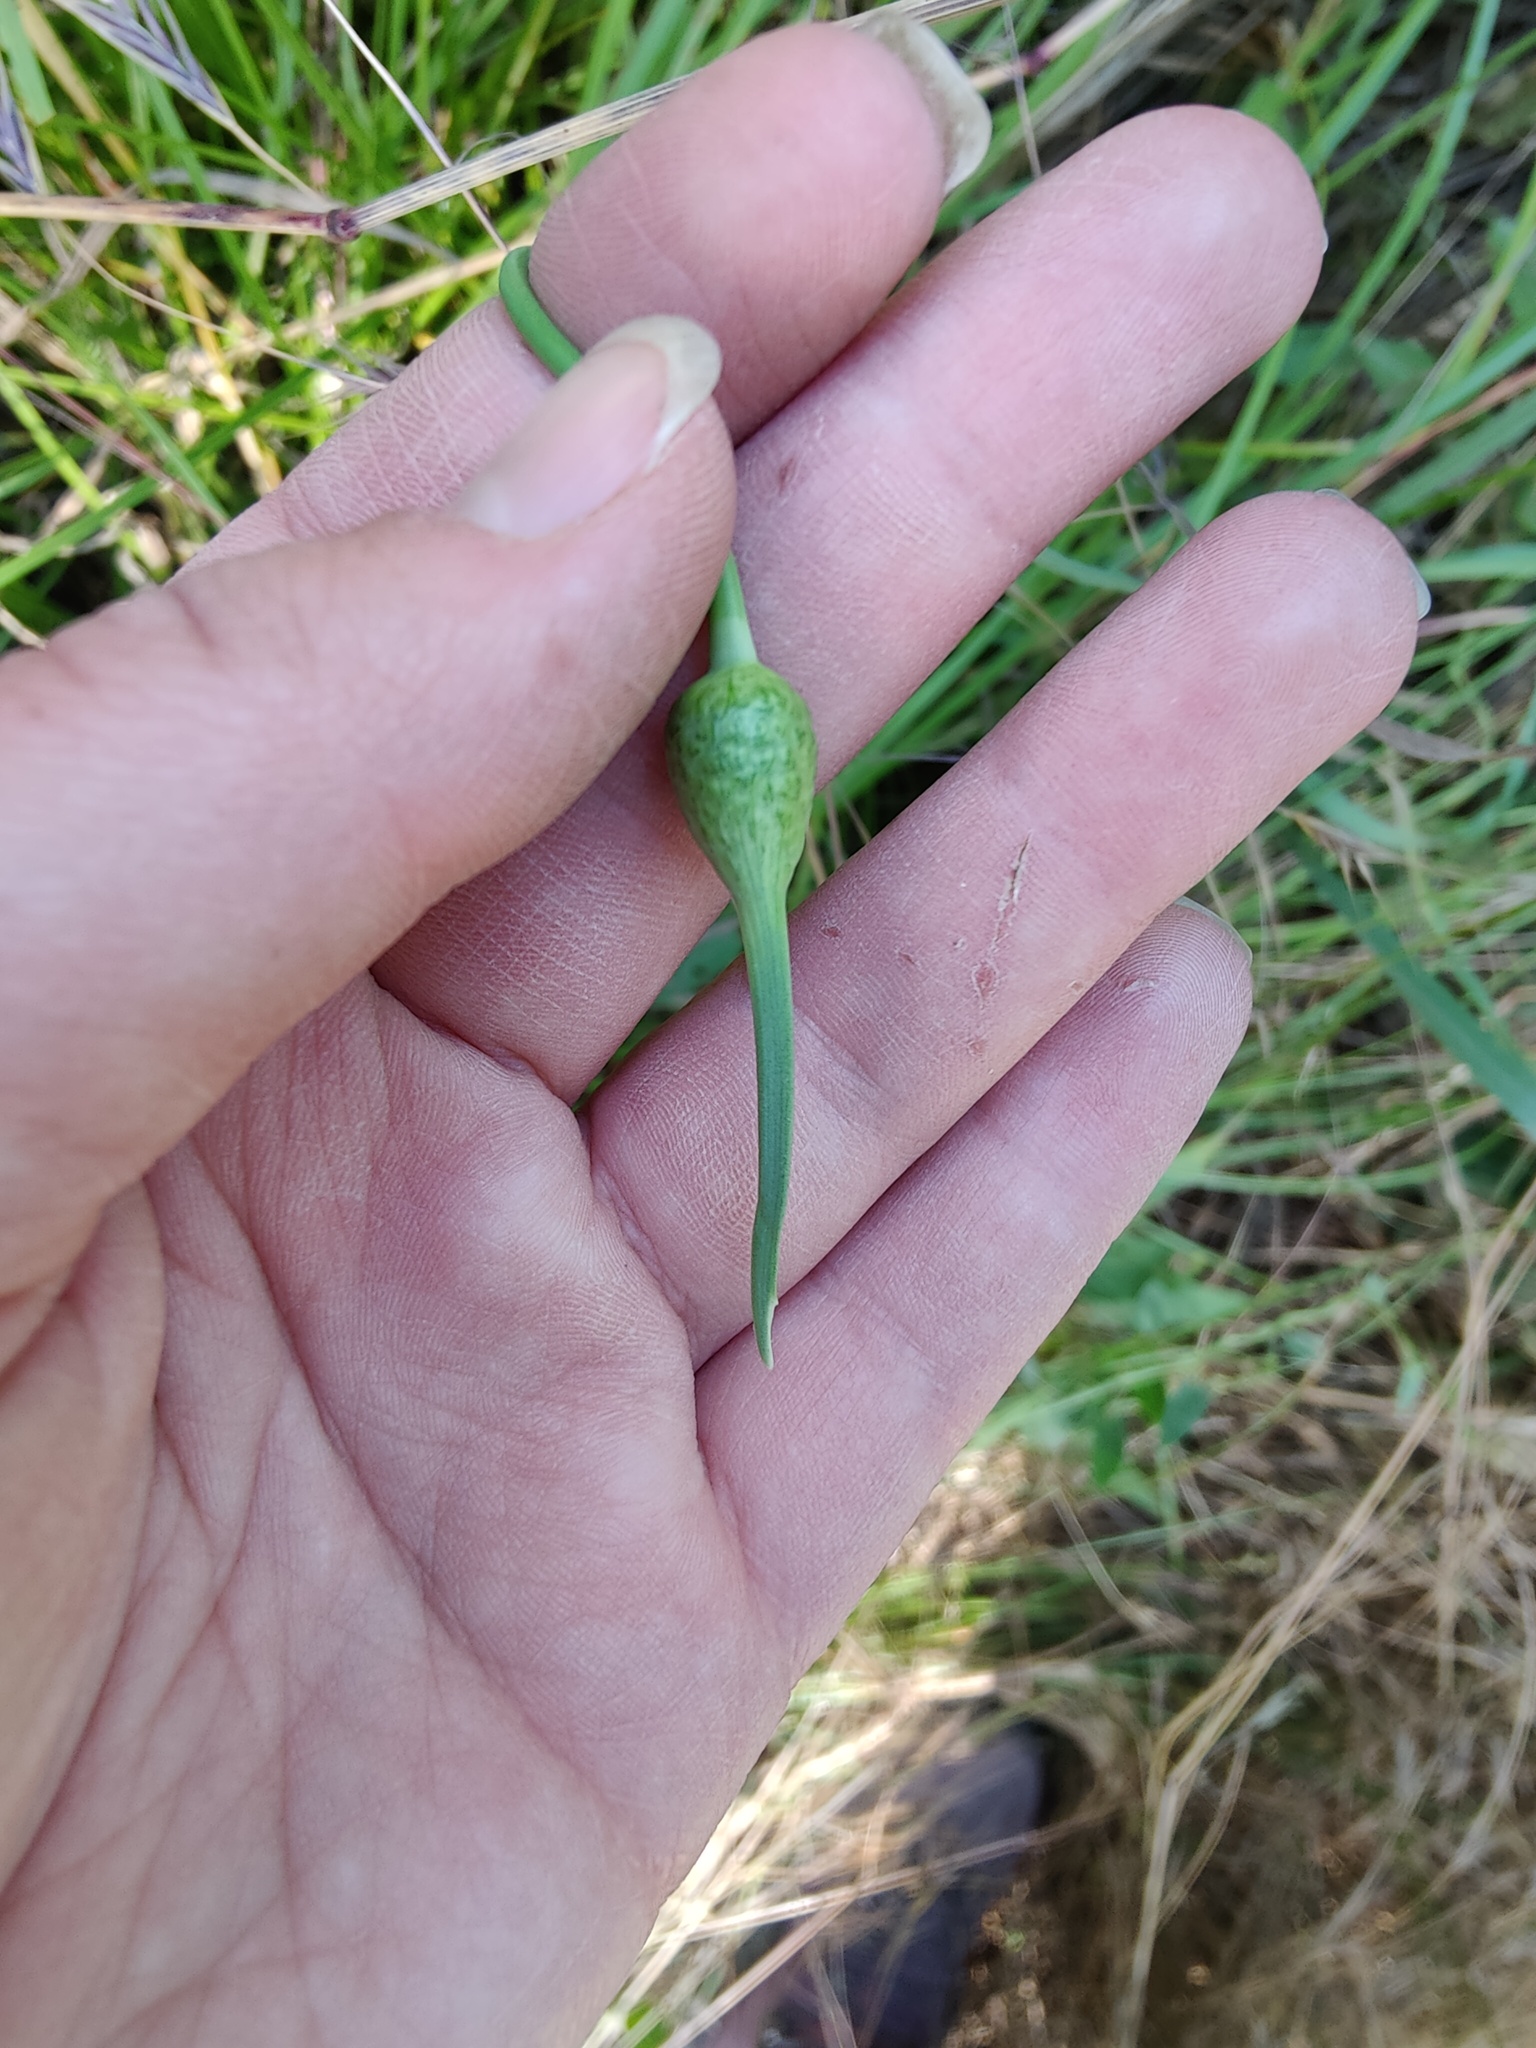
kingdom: Plantae
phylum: Tracheophyta
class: Liliopsida
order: Asparagales
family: Amaryllidaceae
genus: Allium
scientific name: Allium rotundum
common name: Sand leek
